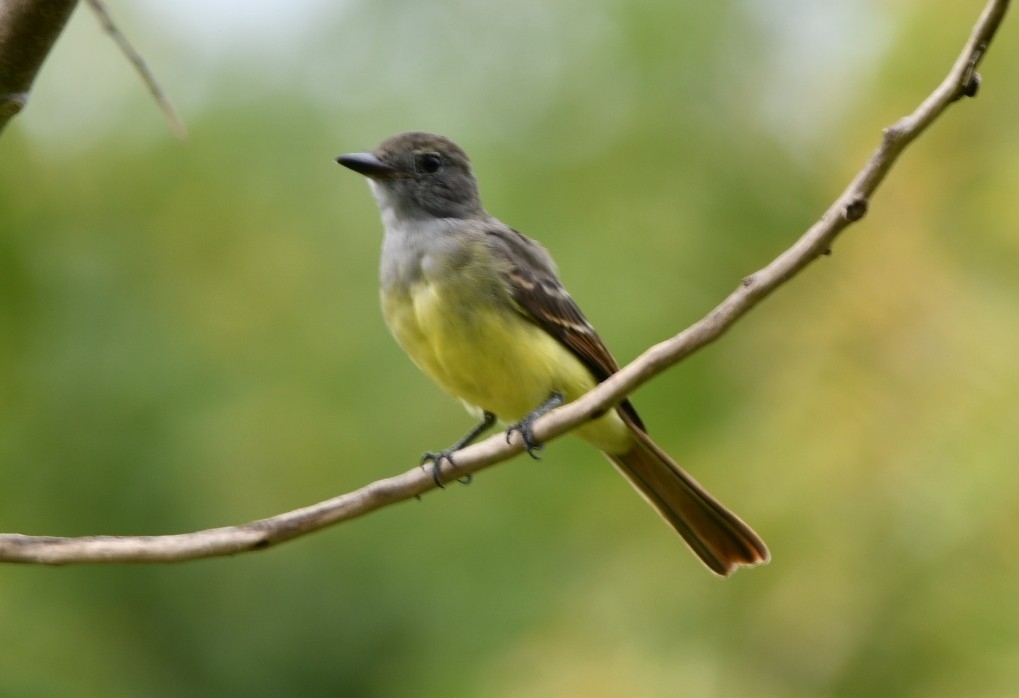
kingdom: Animalia
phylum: Chordata
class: Aves
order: Passeriformes
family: Tyrannidae
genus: Myiarchus
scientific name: Myiarchus crinitus
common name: Great crested flycatcher
